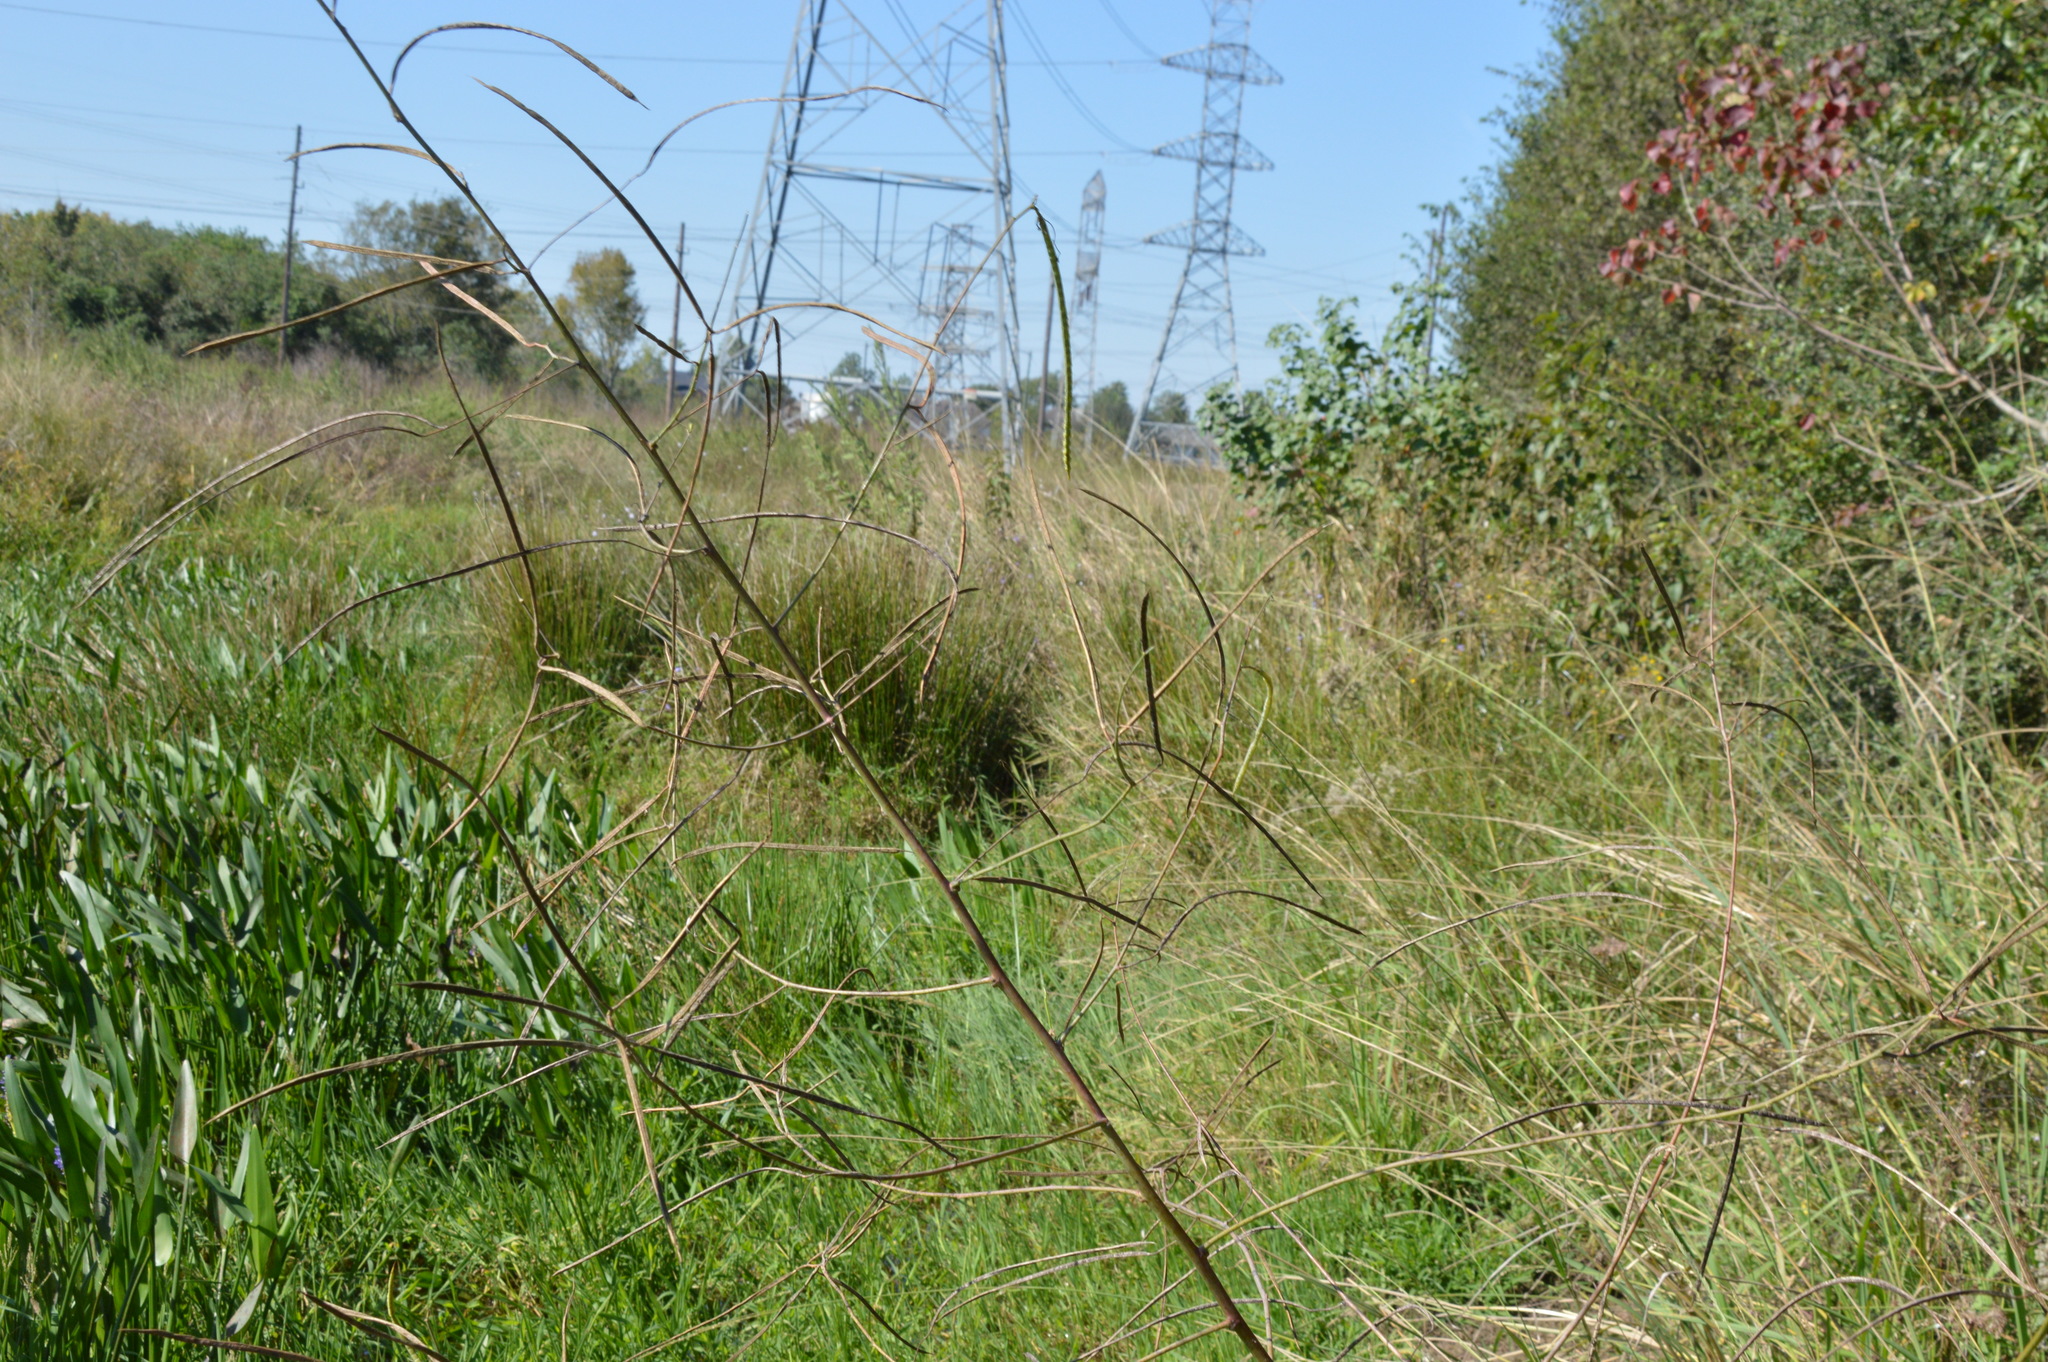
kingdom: Plantae
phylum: Tracheophyta
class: Magnoliopsida
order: Fabales
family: Fabaceae
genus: Sesbania
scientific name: Sesbania herbacea
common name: Bigpod sesbania
